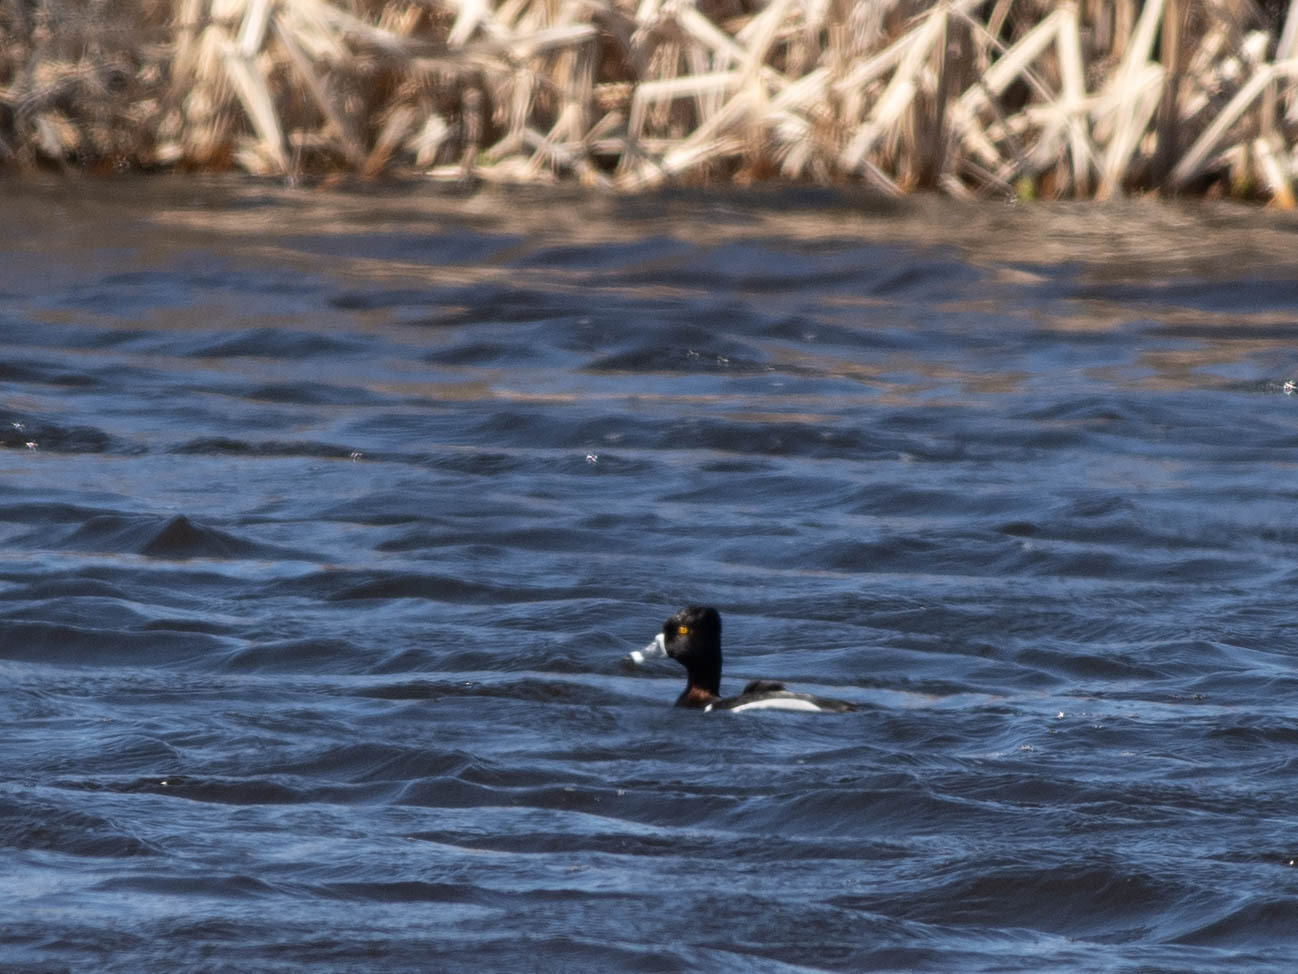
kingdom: Animalia
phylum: Chordata
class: Aves
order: Anseriformes
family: Anatidae
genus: Aythya
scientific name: Aythya collaris
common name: Ring-necked duck
